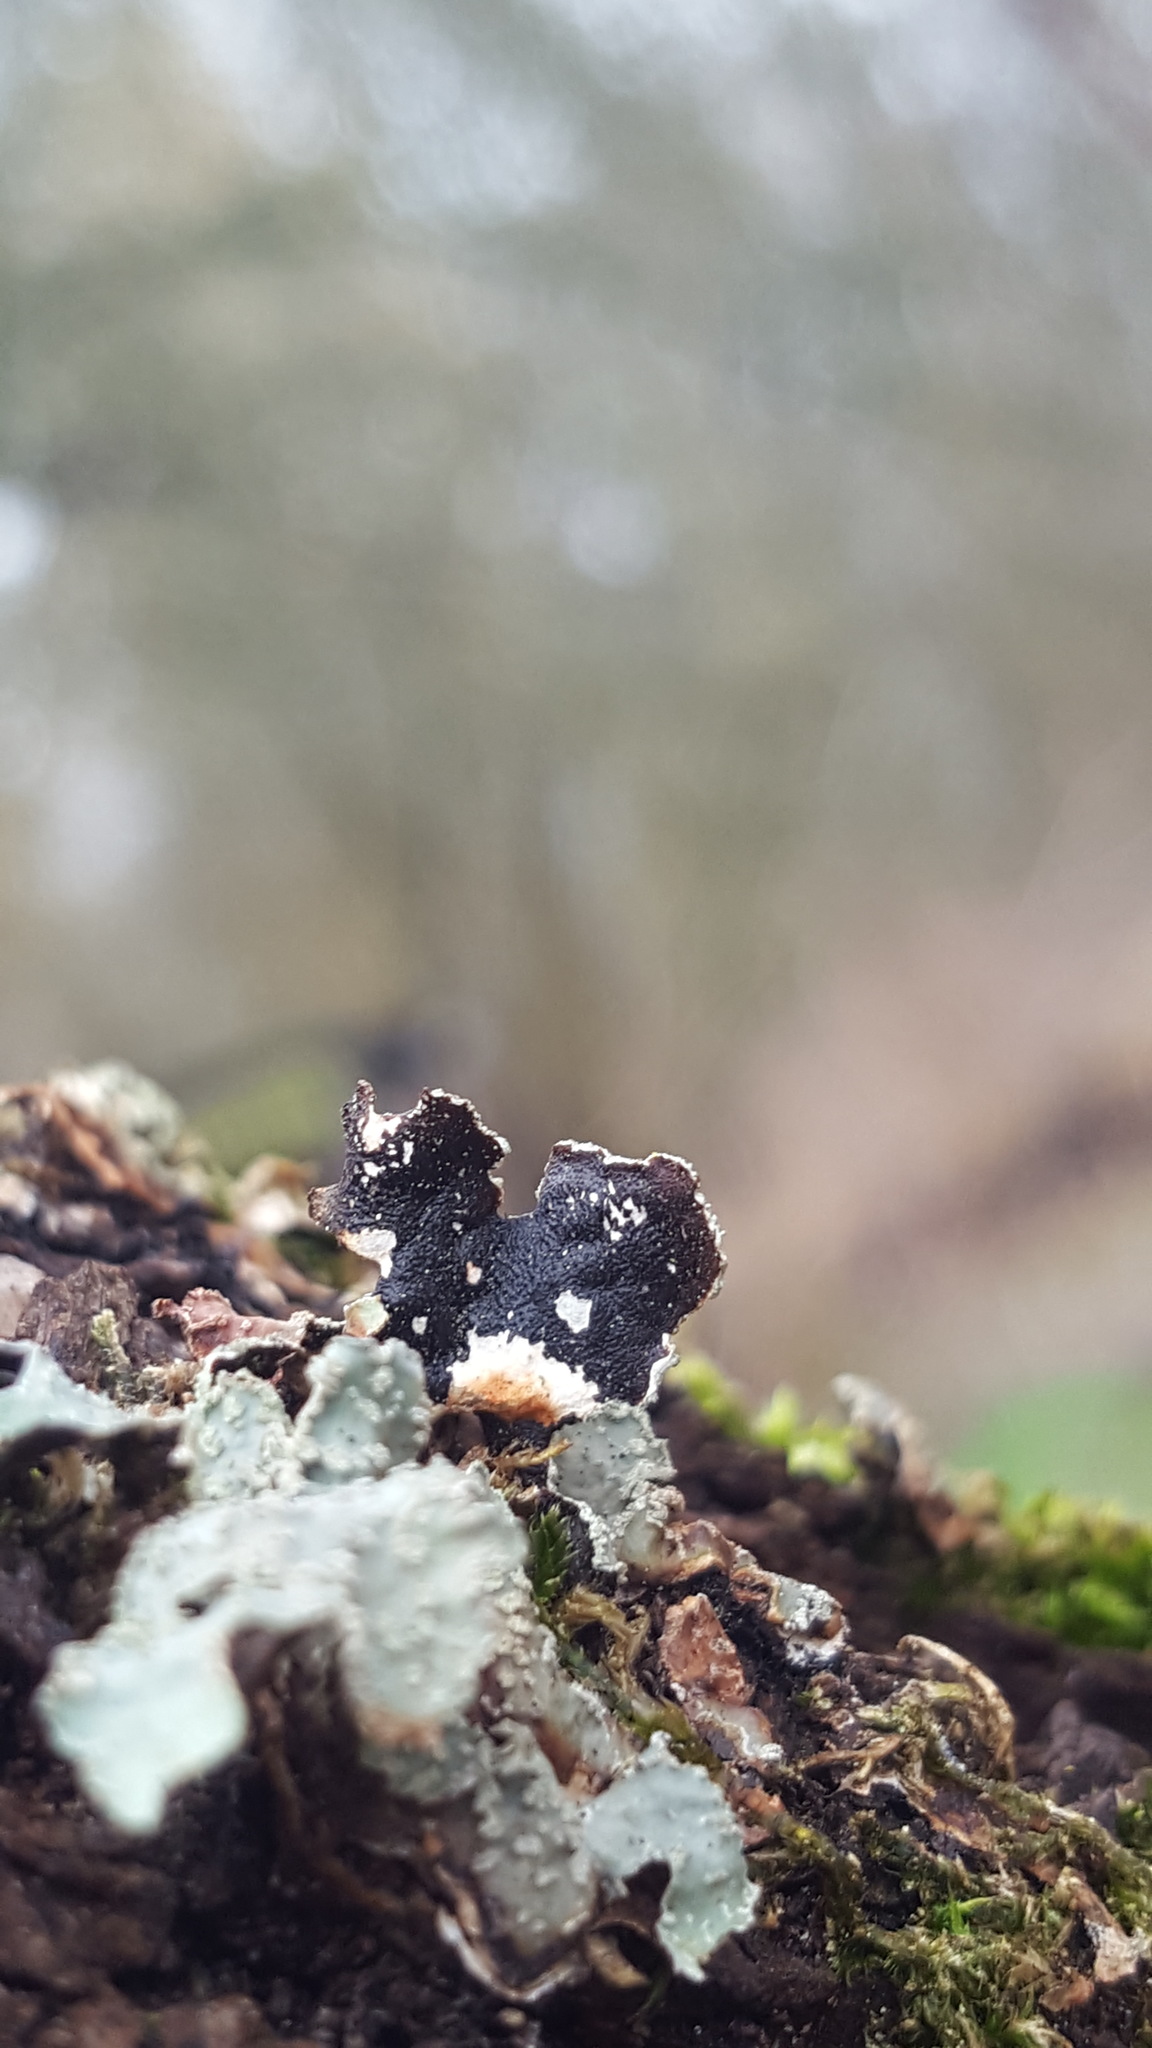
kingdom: Fungi
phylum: Ascomycota
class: Lecanoromycetes
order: Lecanorales
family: Parmeliaceae
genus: Parmelia
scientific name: Parmelia sulcata
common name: Netted shield lichen
